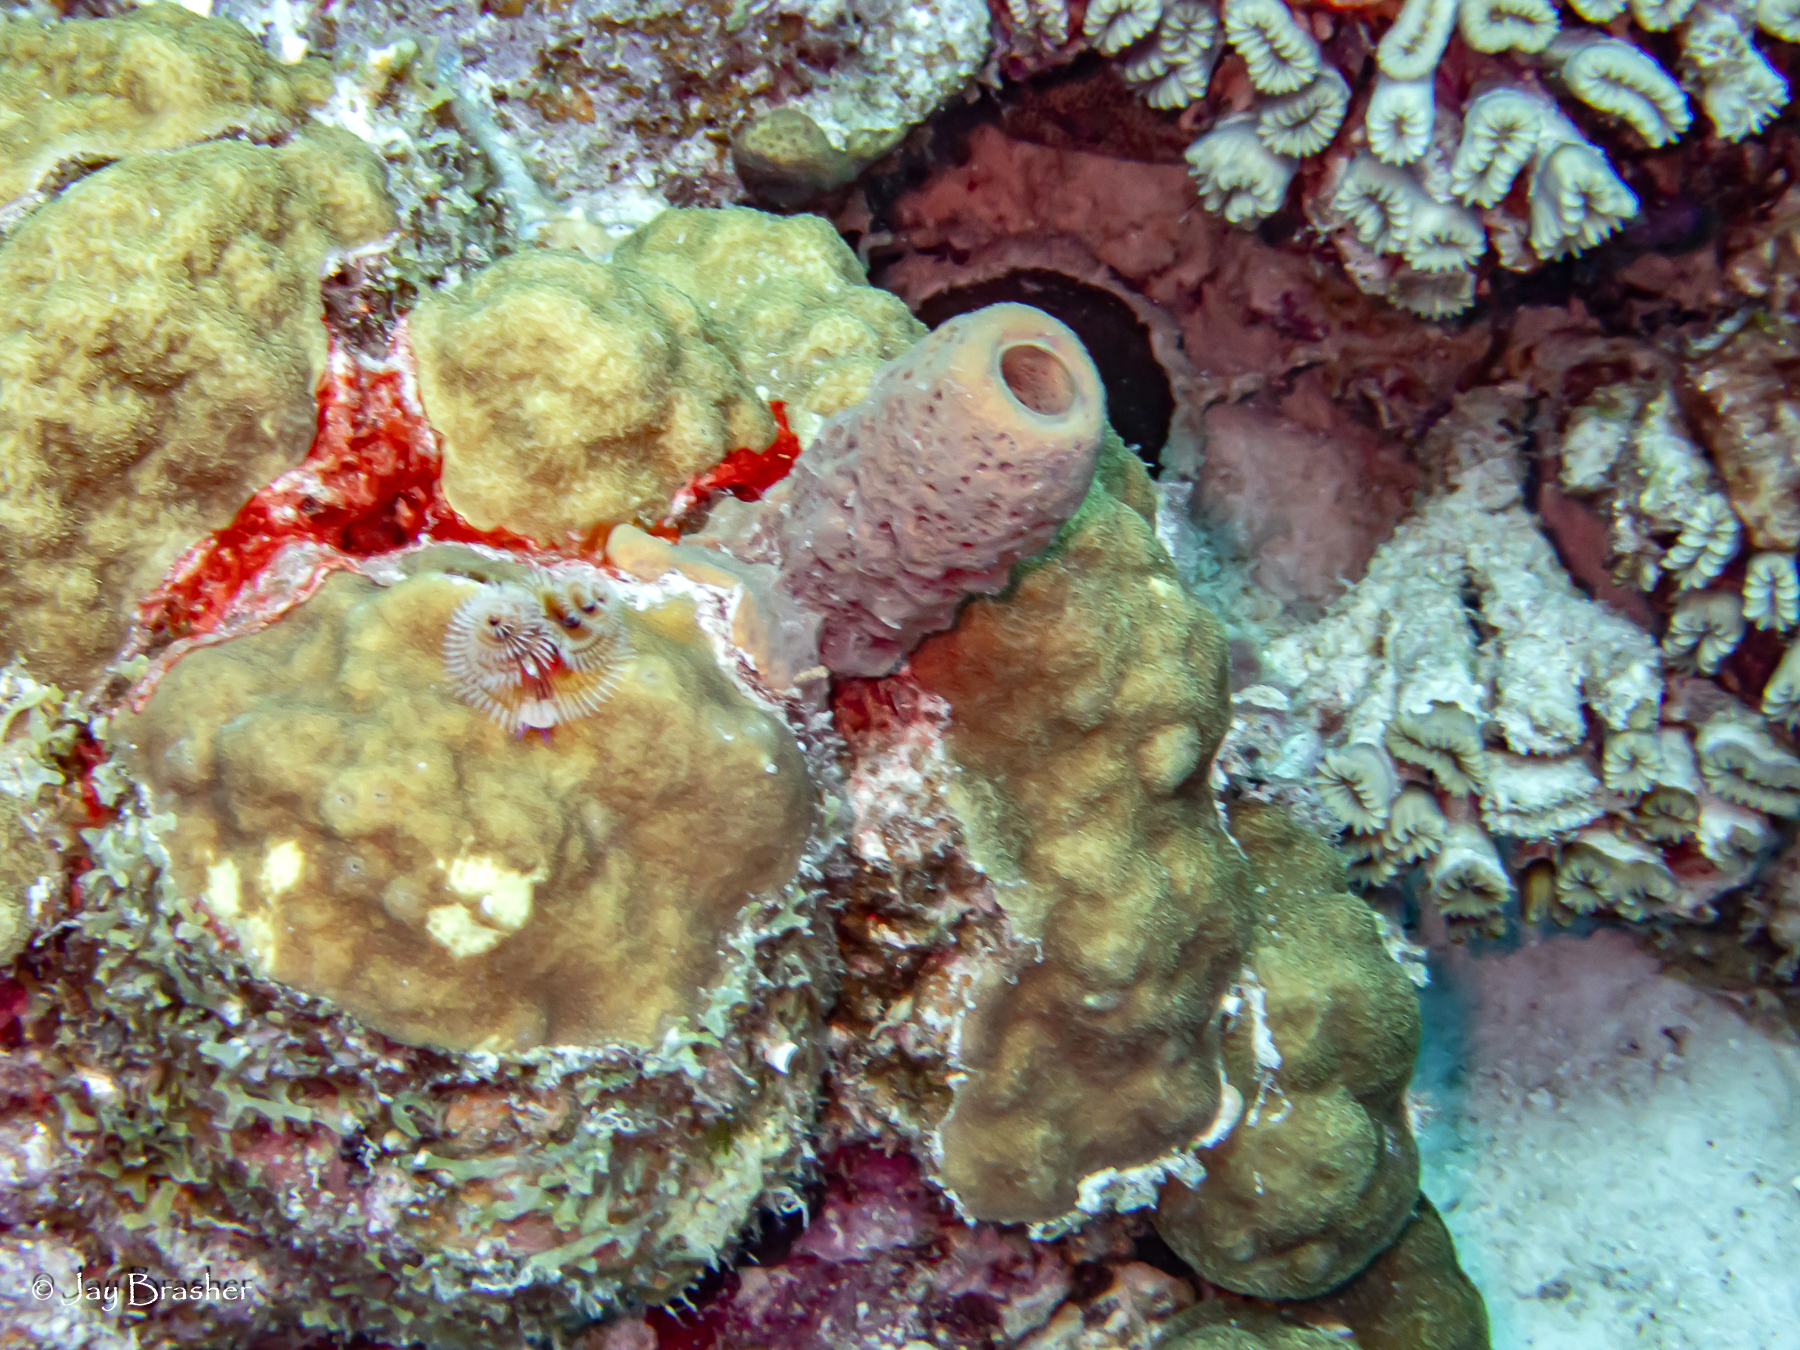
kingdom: Animalia
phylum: Porifera
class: Demospongiae
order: Verongiida
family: Aplysinidae
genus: Aplysina
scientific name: Aplysina archeri
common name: Stove-pipe sponge
